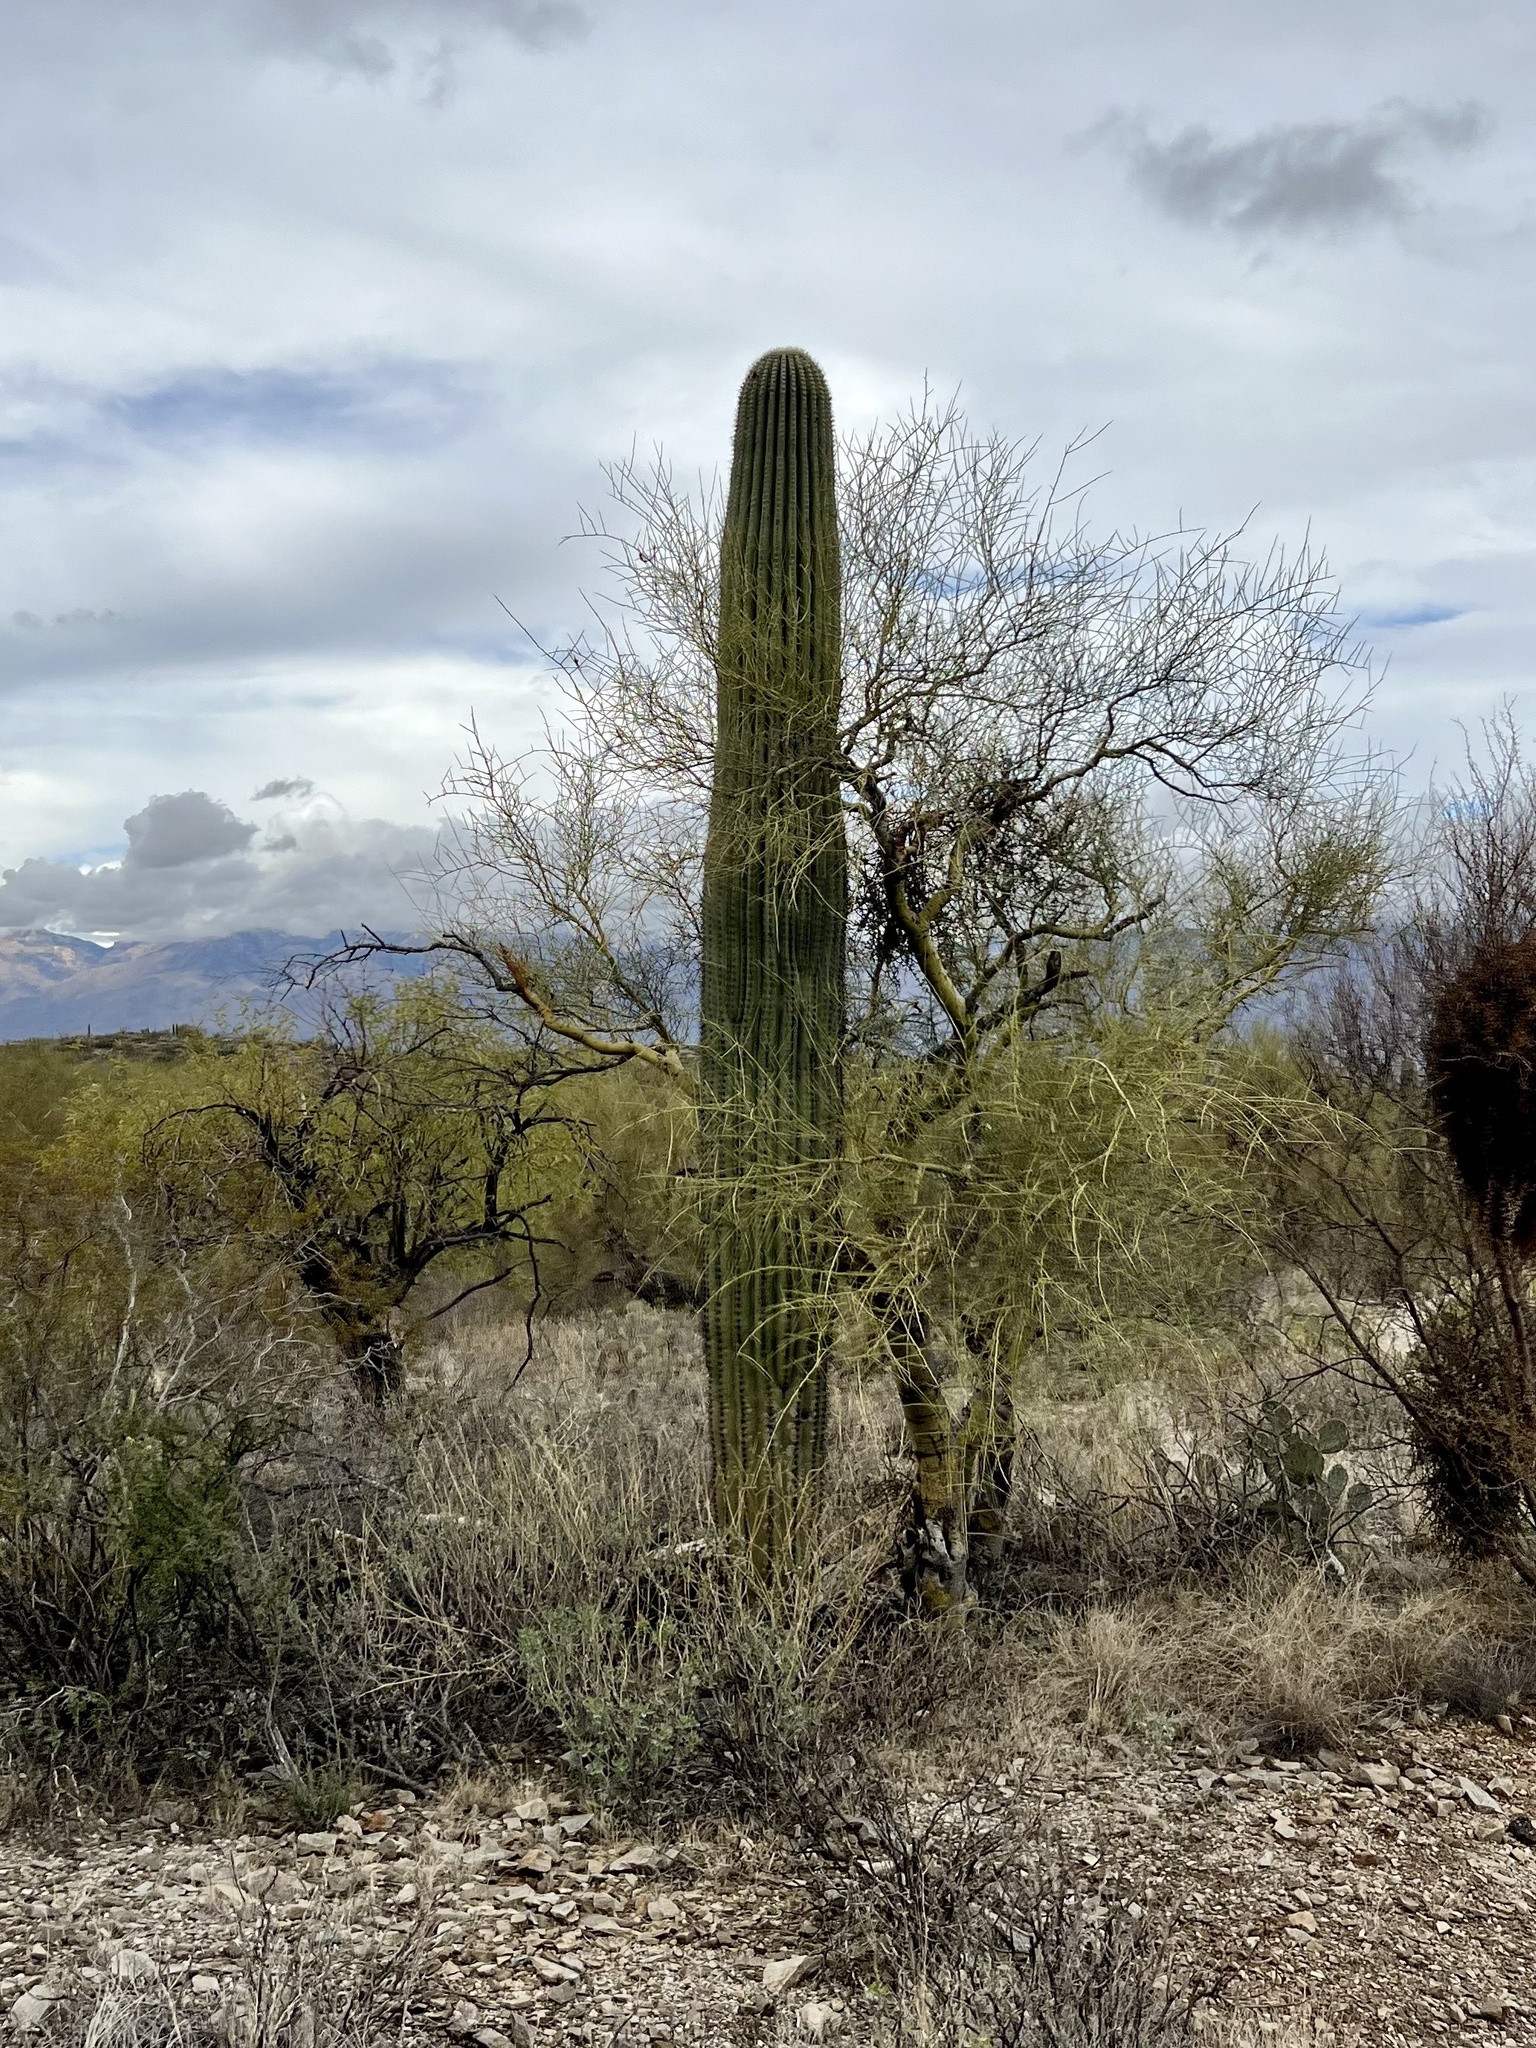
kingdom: Plantae
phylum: Tracheophyta
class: Magnoliopsida
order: Caryophyllales
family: Cactaceae
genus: Carnegiea
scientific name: Carnegiea gigantea
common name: Saguaro
